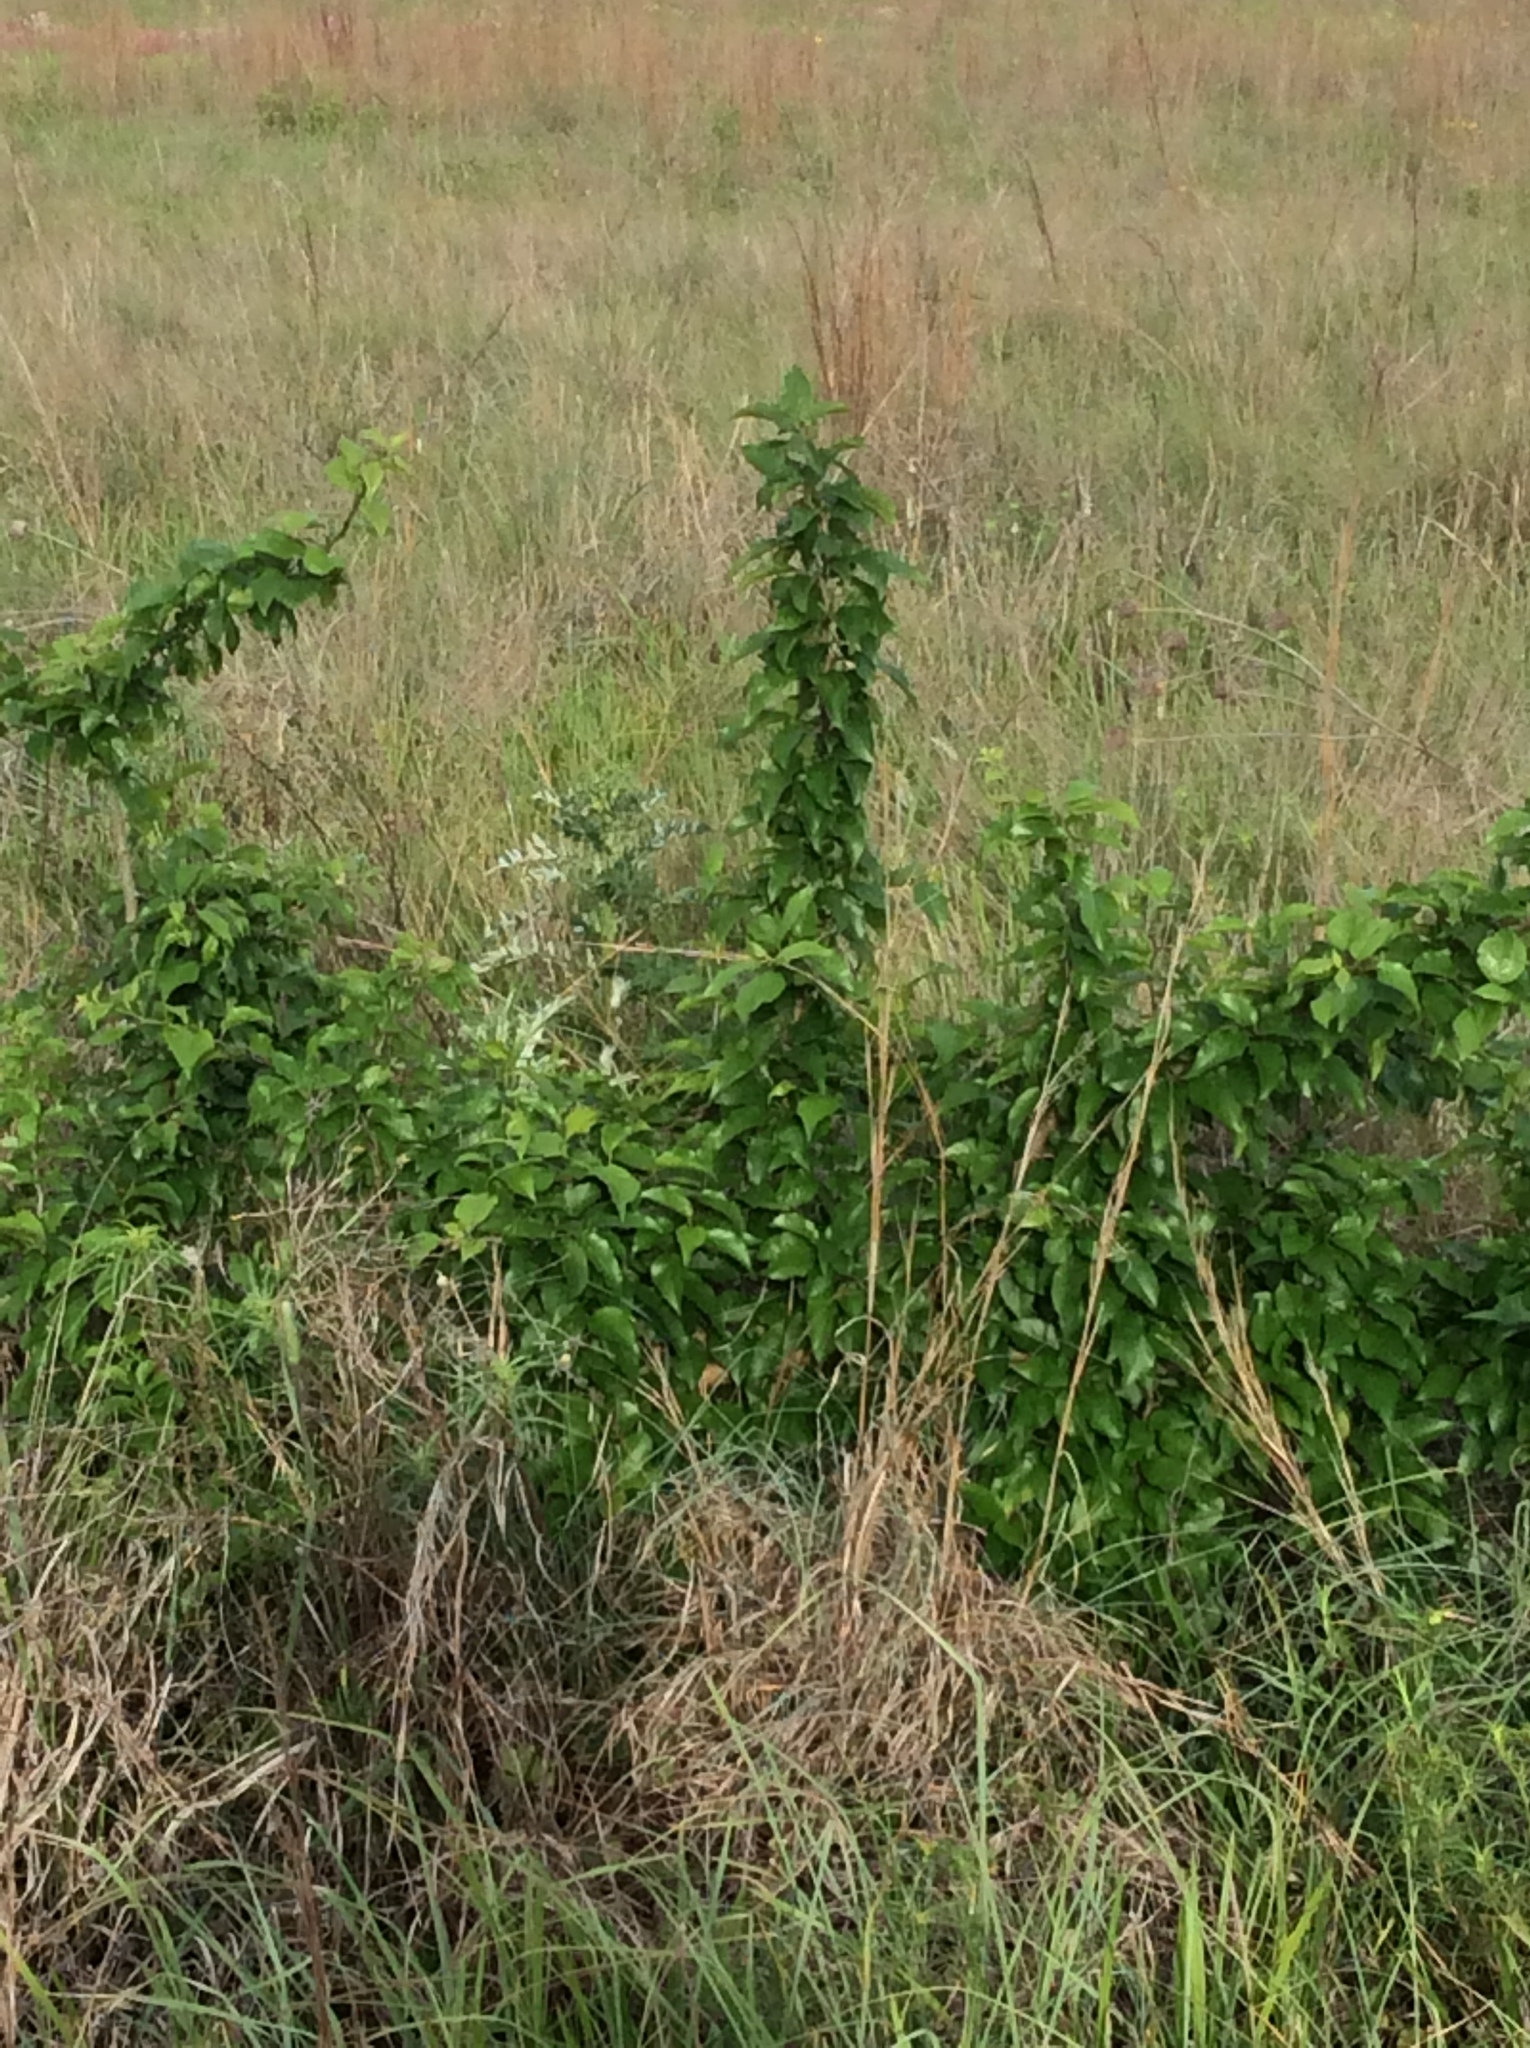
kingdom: Plantae
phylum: Tracheophyta
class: Magnoliopsida
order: Rosales
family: Moraceae
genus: Maclura
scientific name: Maclura pomifera
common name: Osage-orange
